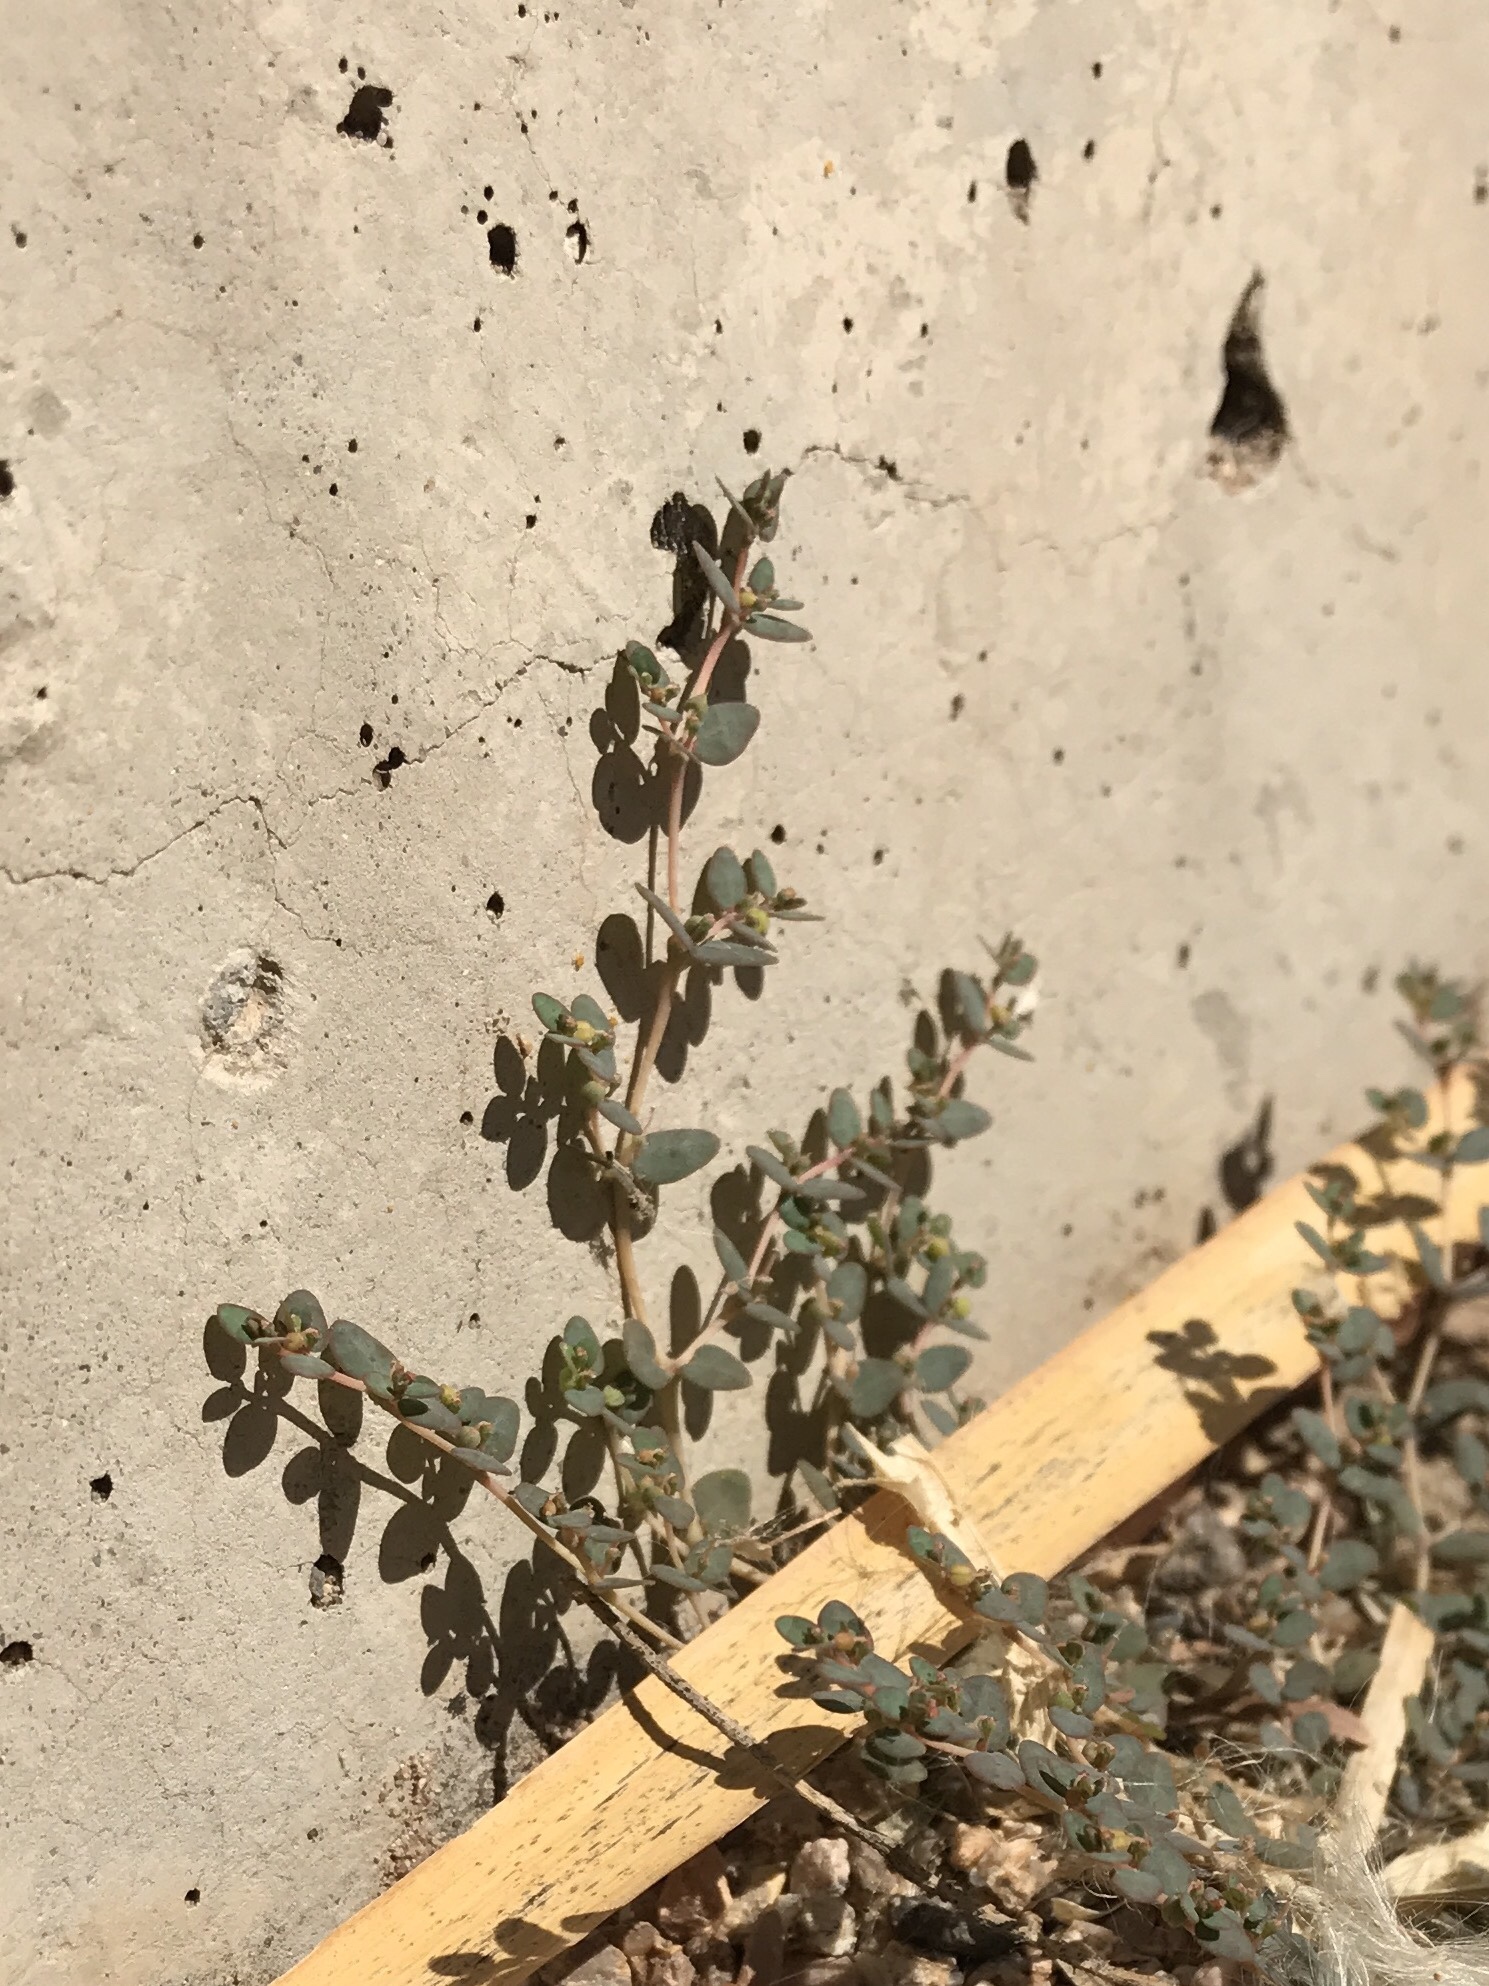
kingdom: Plantae
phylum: Tracheophyta
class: Magnoliopsida
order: Malpighiales
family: Euphorbiaceae
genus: Euphorbia
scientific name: Euphorbia micromera
